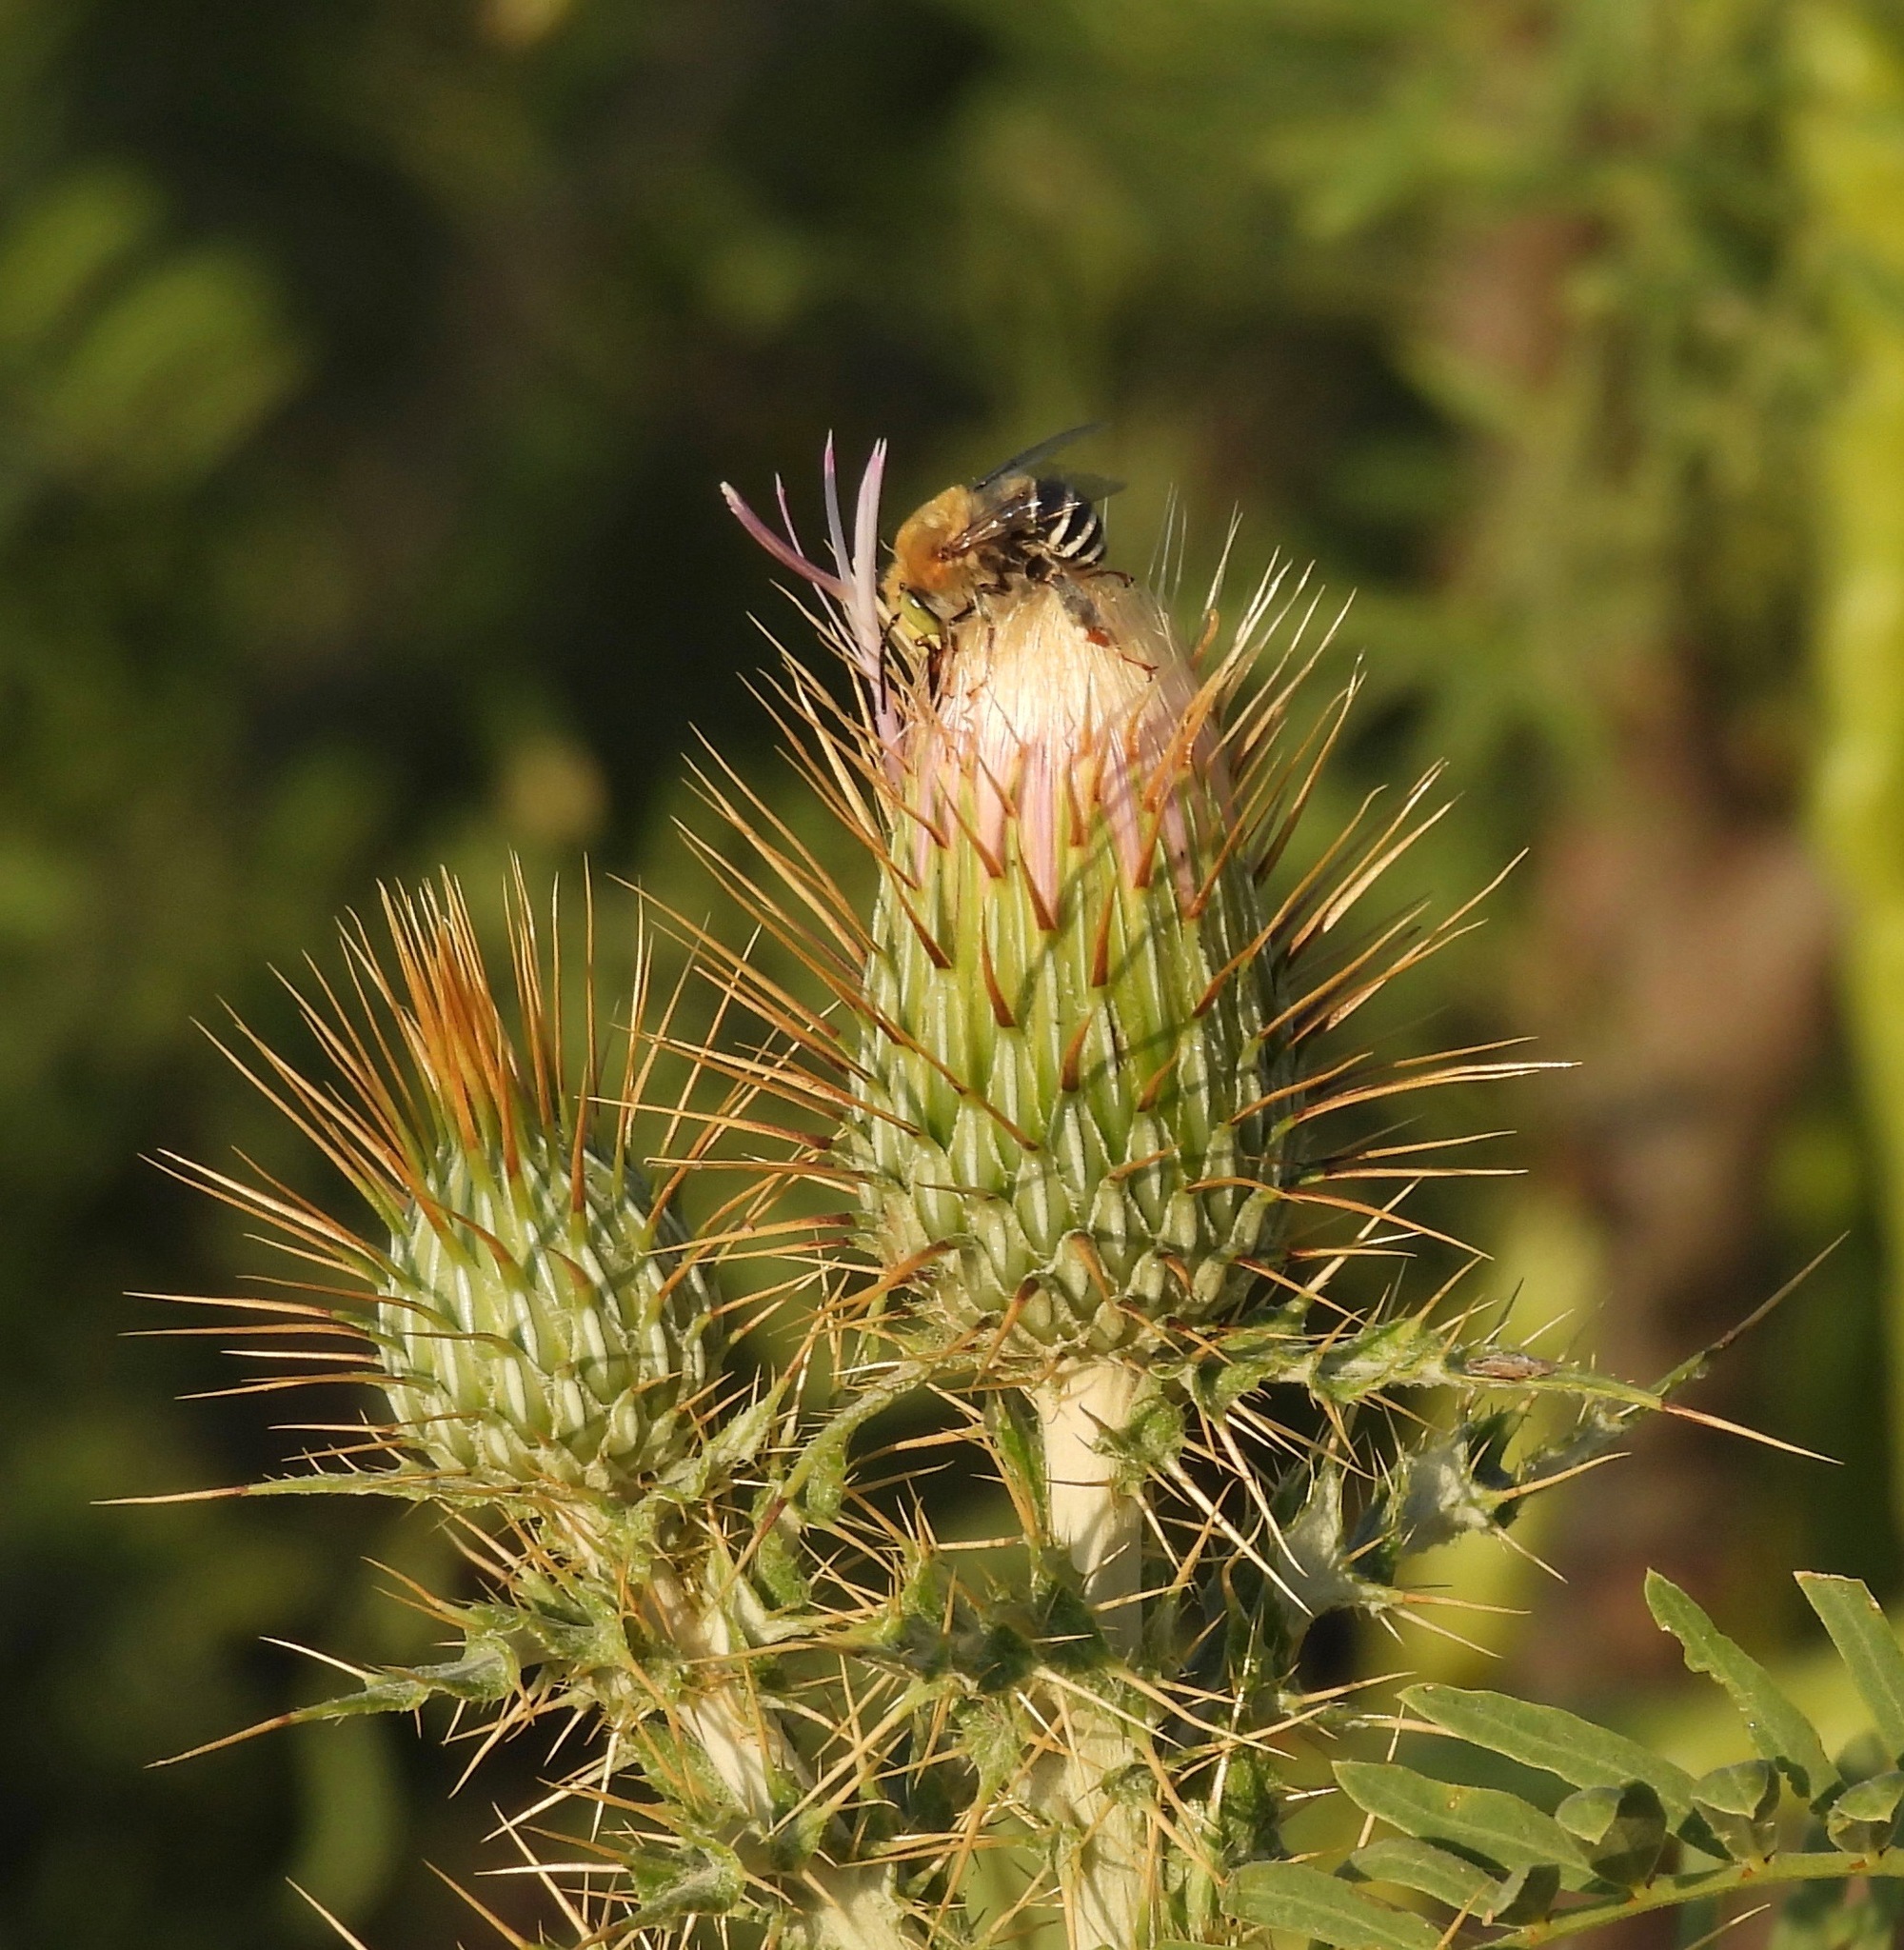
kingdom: Animalia
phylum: Arthropoda
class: Insecta
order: Hymenoptera
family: Apidae
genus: Anthophora
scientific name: Anthophora californica
